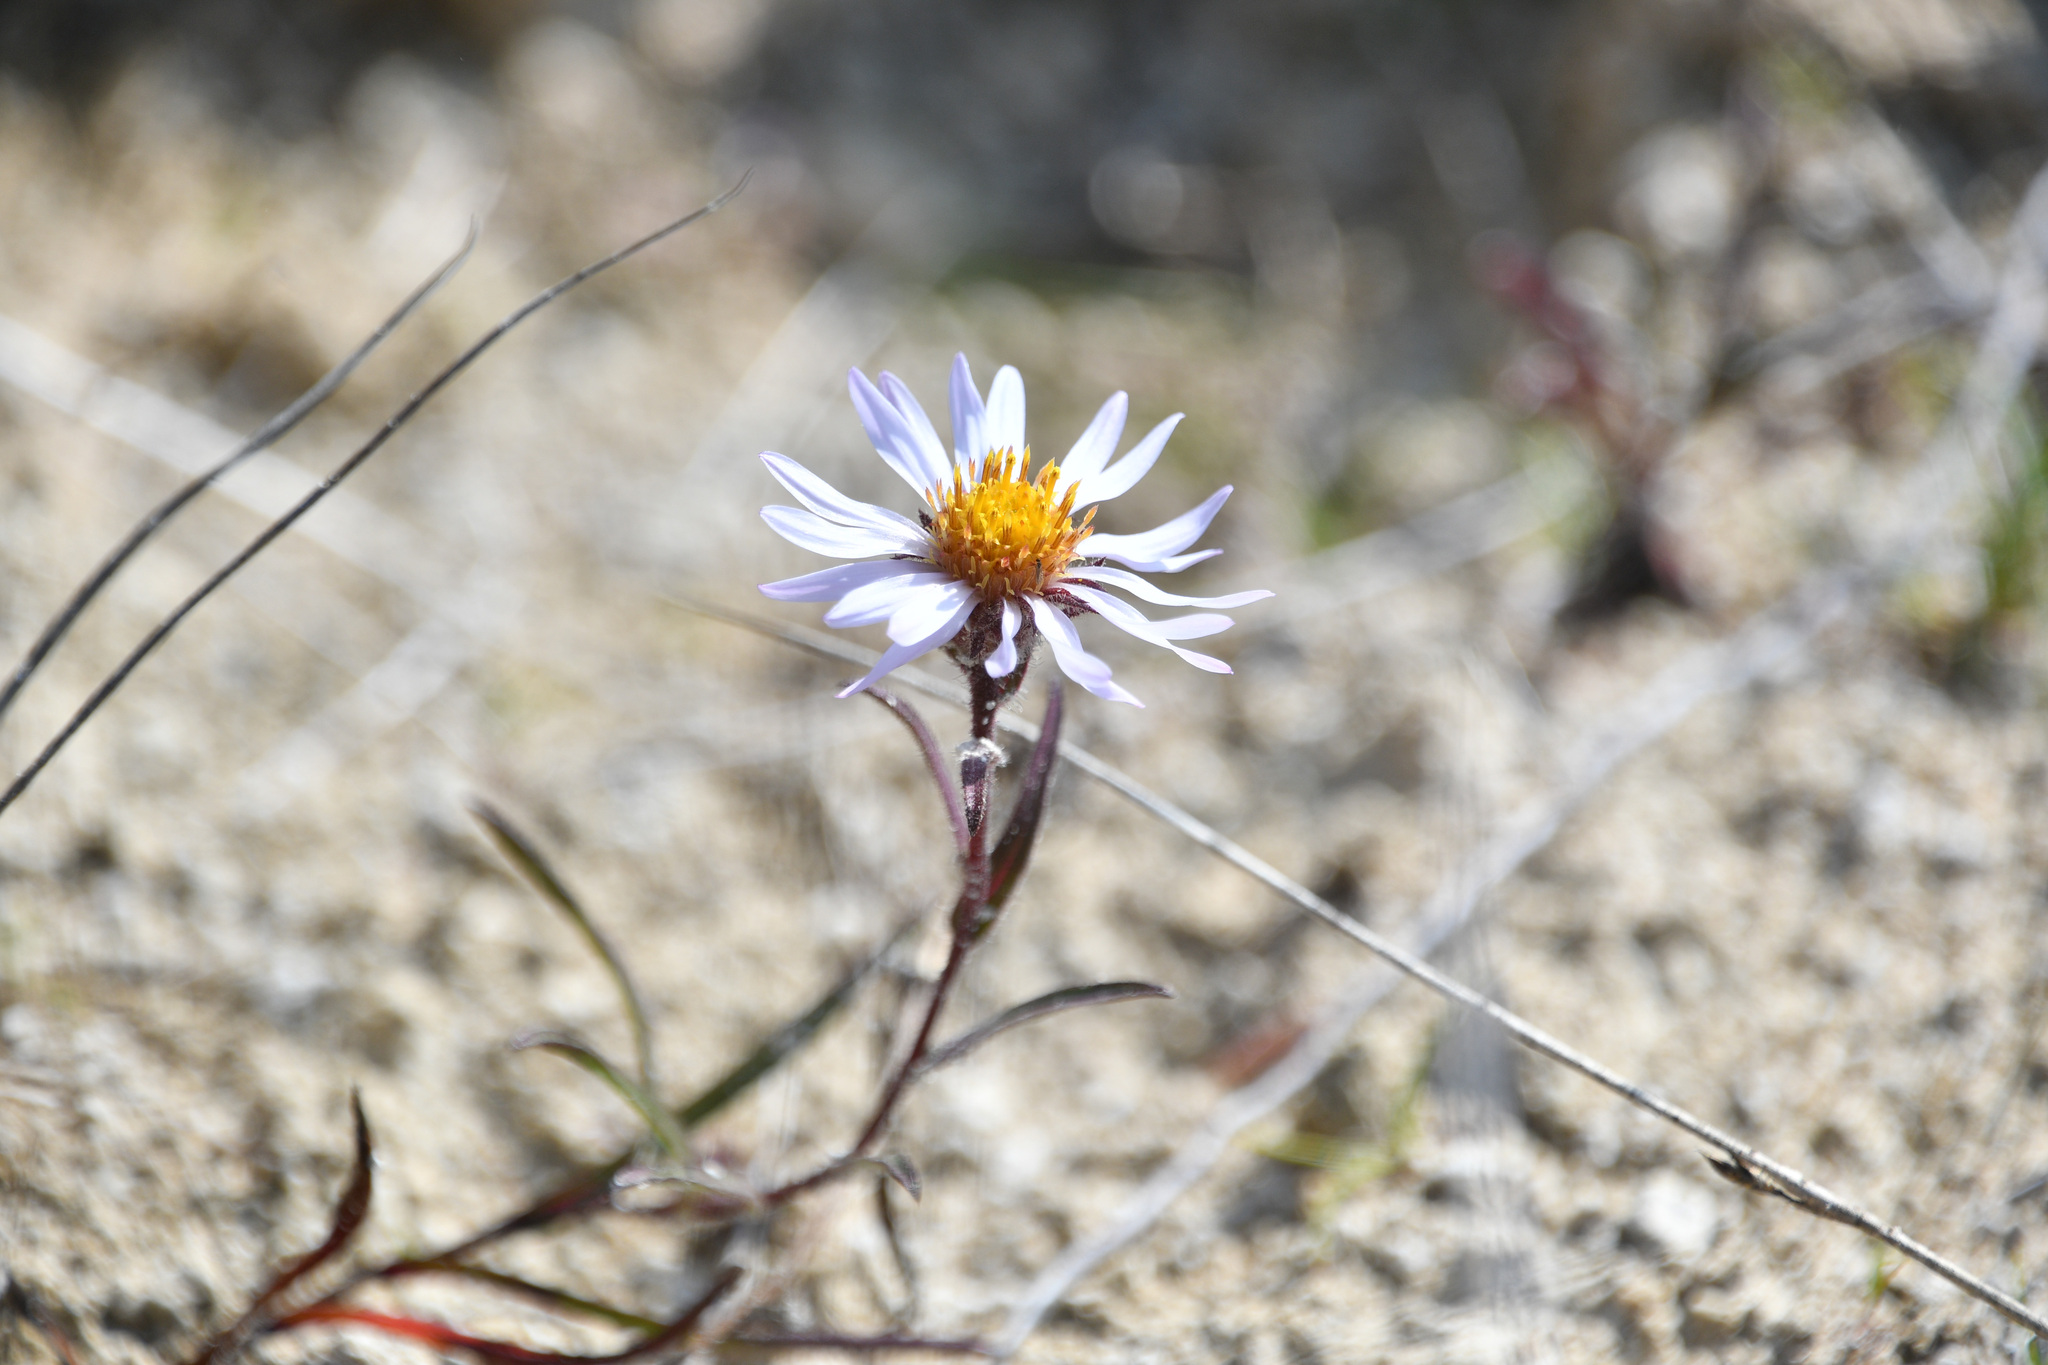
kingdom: Plantae
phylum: Tracheophyta
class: Magnoliopsida
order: Asterales
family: Asteraceae
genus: Symphyotrichum
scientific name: Symphyotrichum yukonense
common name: Yukon aster
